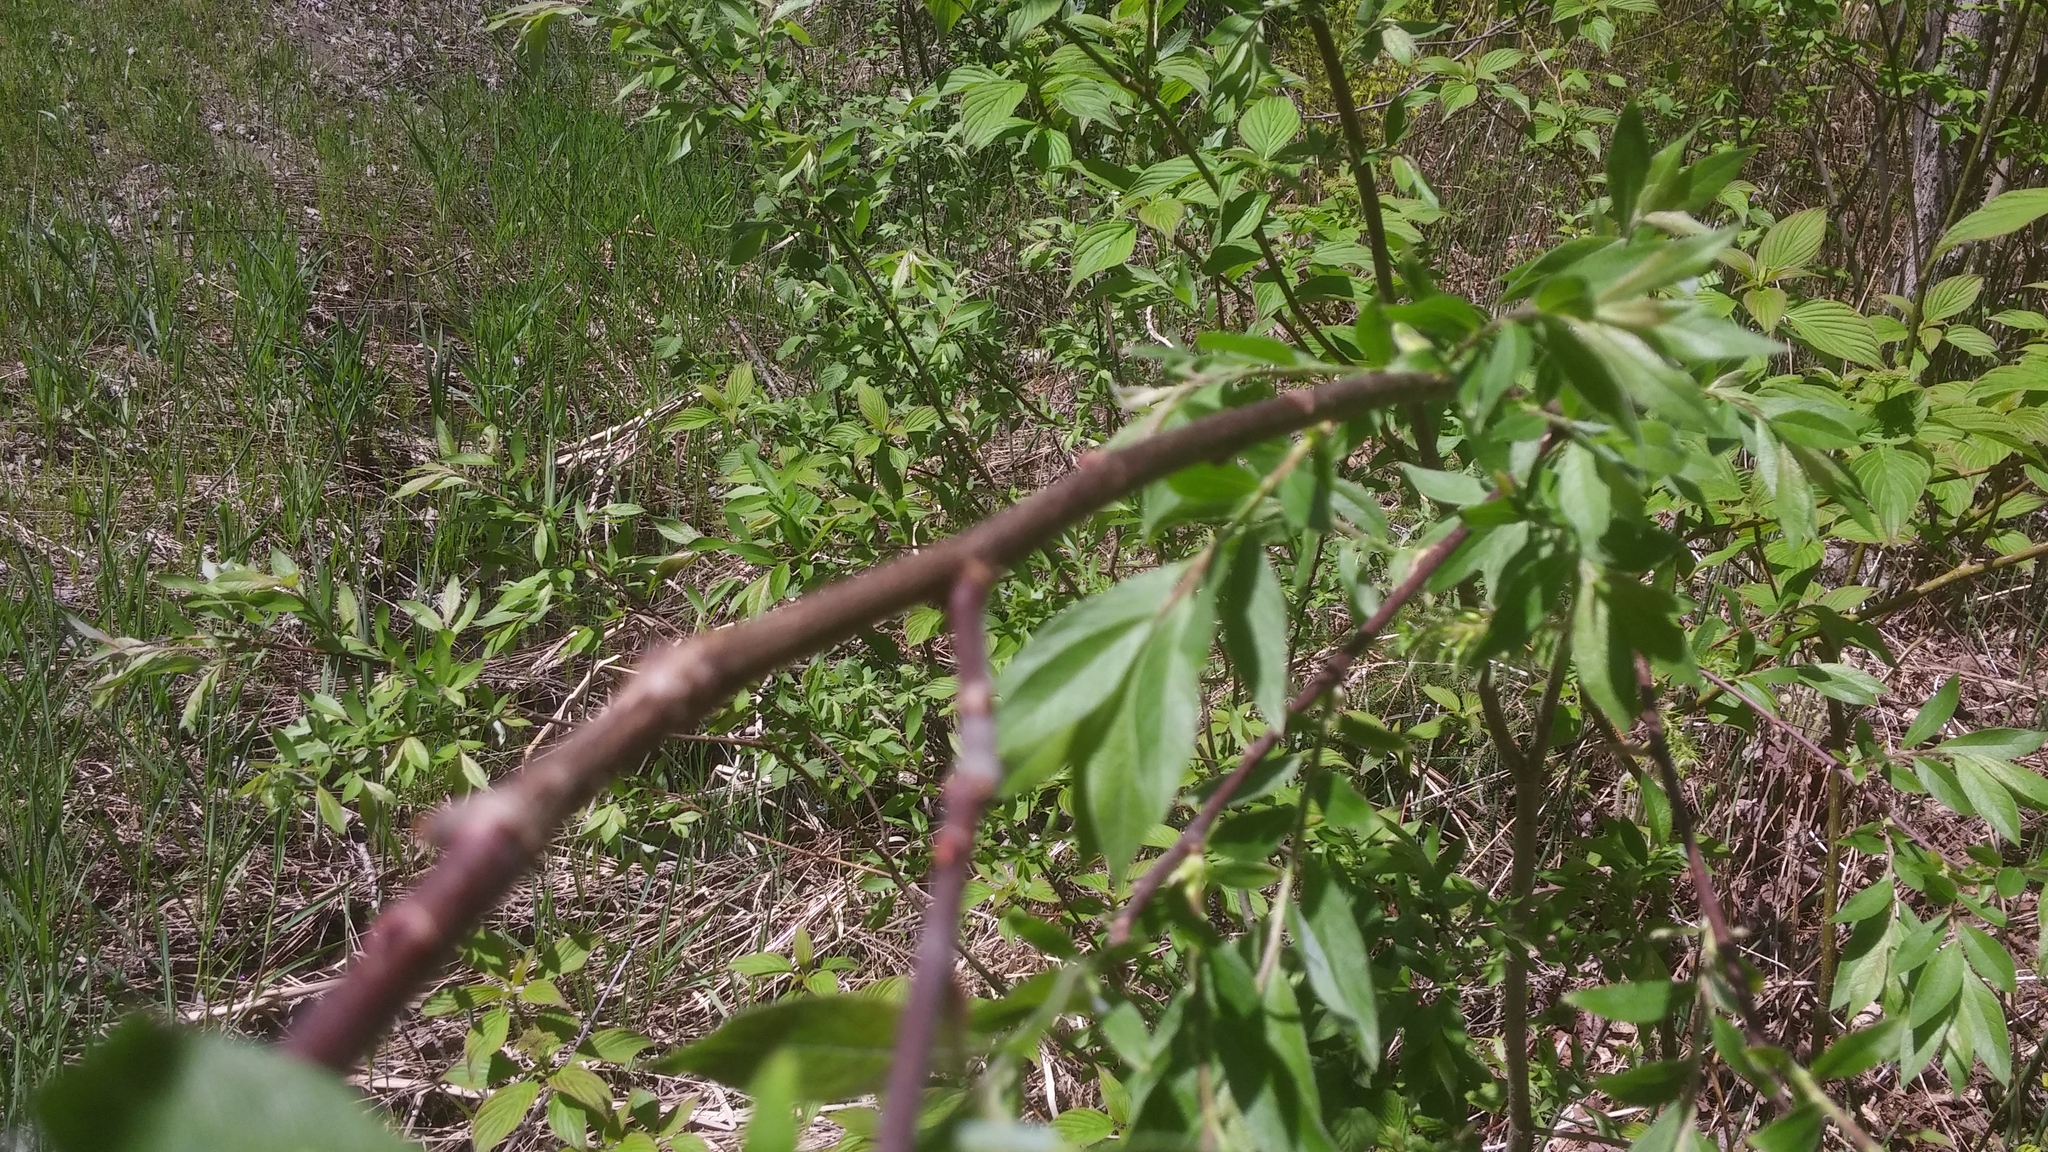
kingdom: Plantae
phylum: Tracheophyta
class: Magnoliopsida
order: Malpighiales
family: Salicaceae
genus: Salix
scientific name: Salix bebbiana
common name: Bebb's willow
